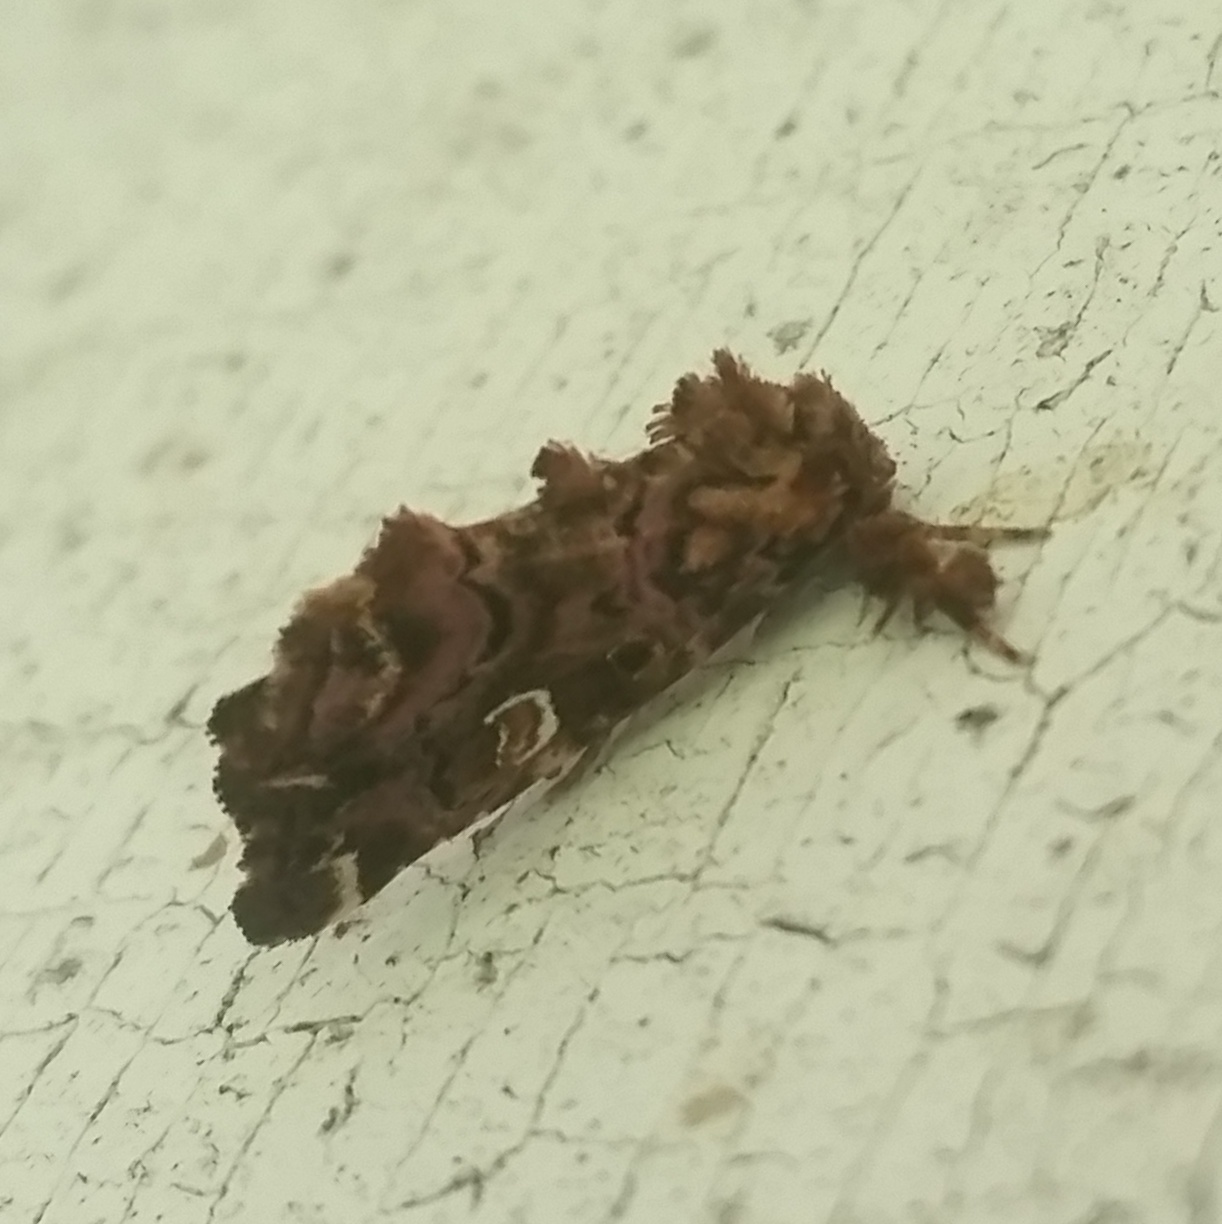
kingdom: Animalia
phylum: Arthropoda
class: Insecta
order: Lepidoptera
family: Noctuidae
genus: Callopistria
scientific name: Callopistria mollissima
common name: Pink-shaded fern moth
